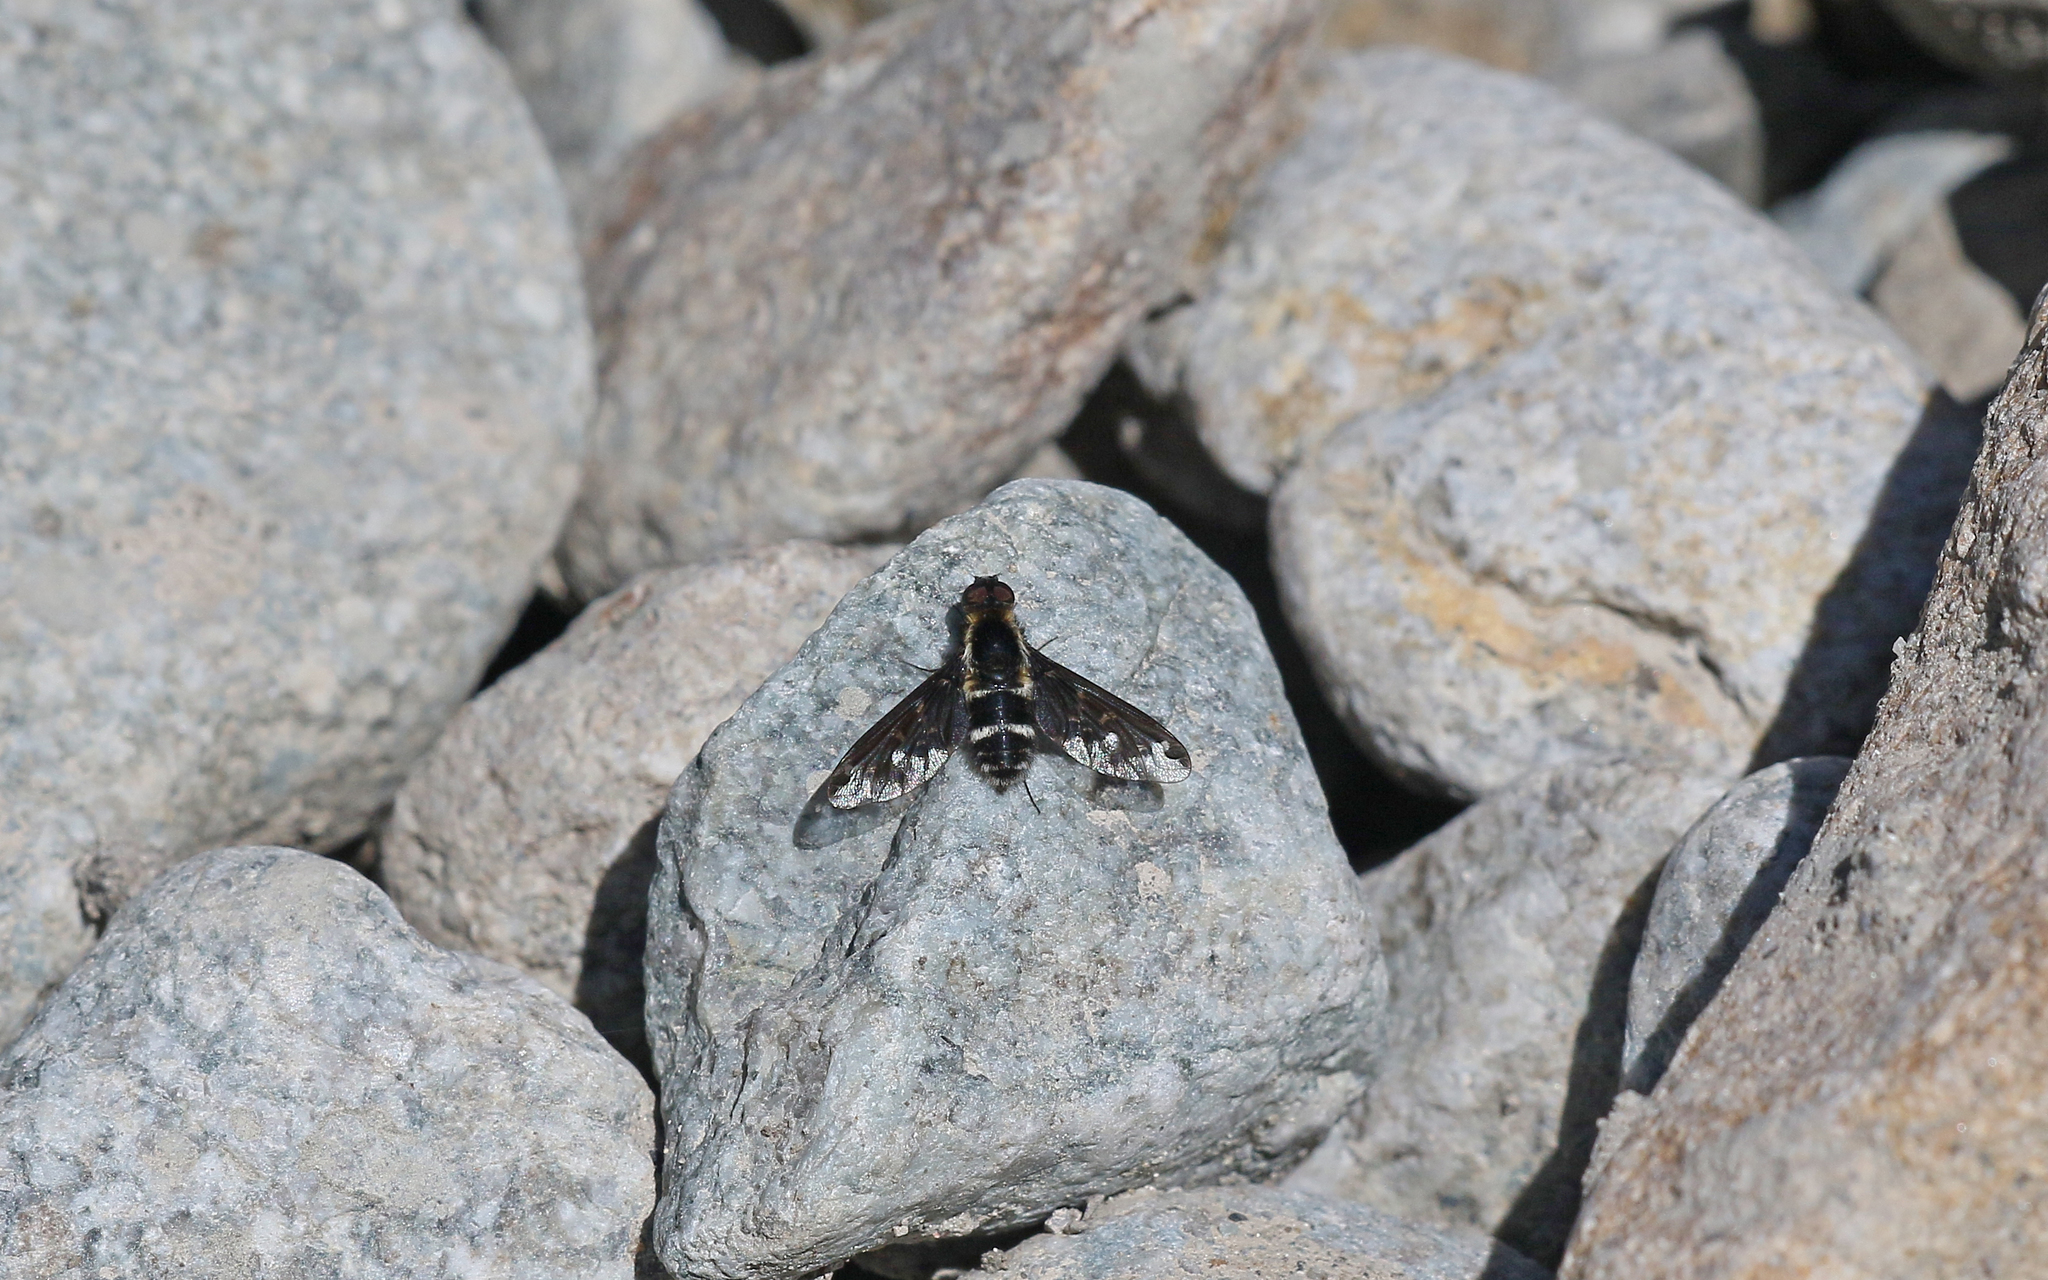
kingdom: Animalia
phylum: Arthropoda
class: Insecta
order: Diptera
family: Bombyliidae
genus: Hemipenthes
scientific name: Hemipenthes maura
